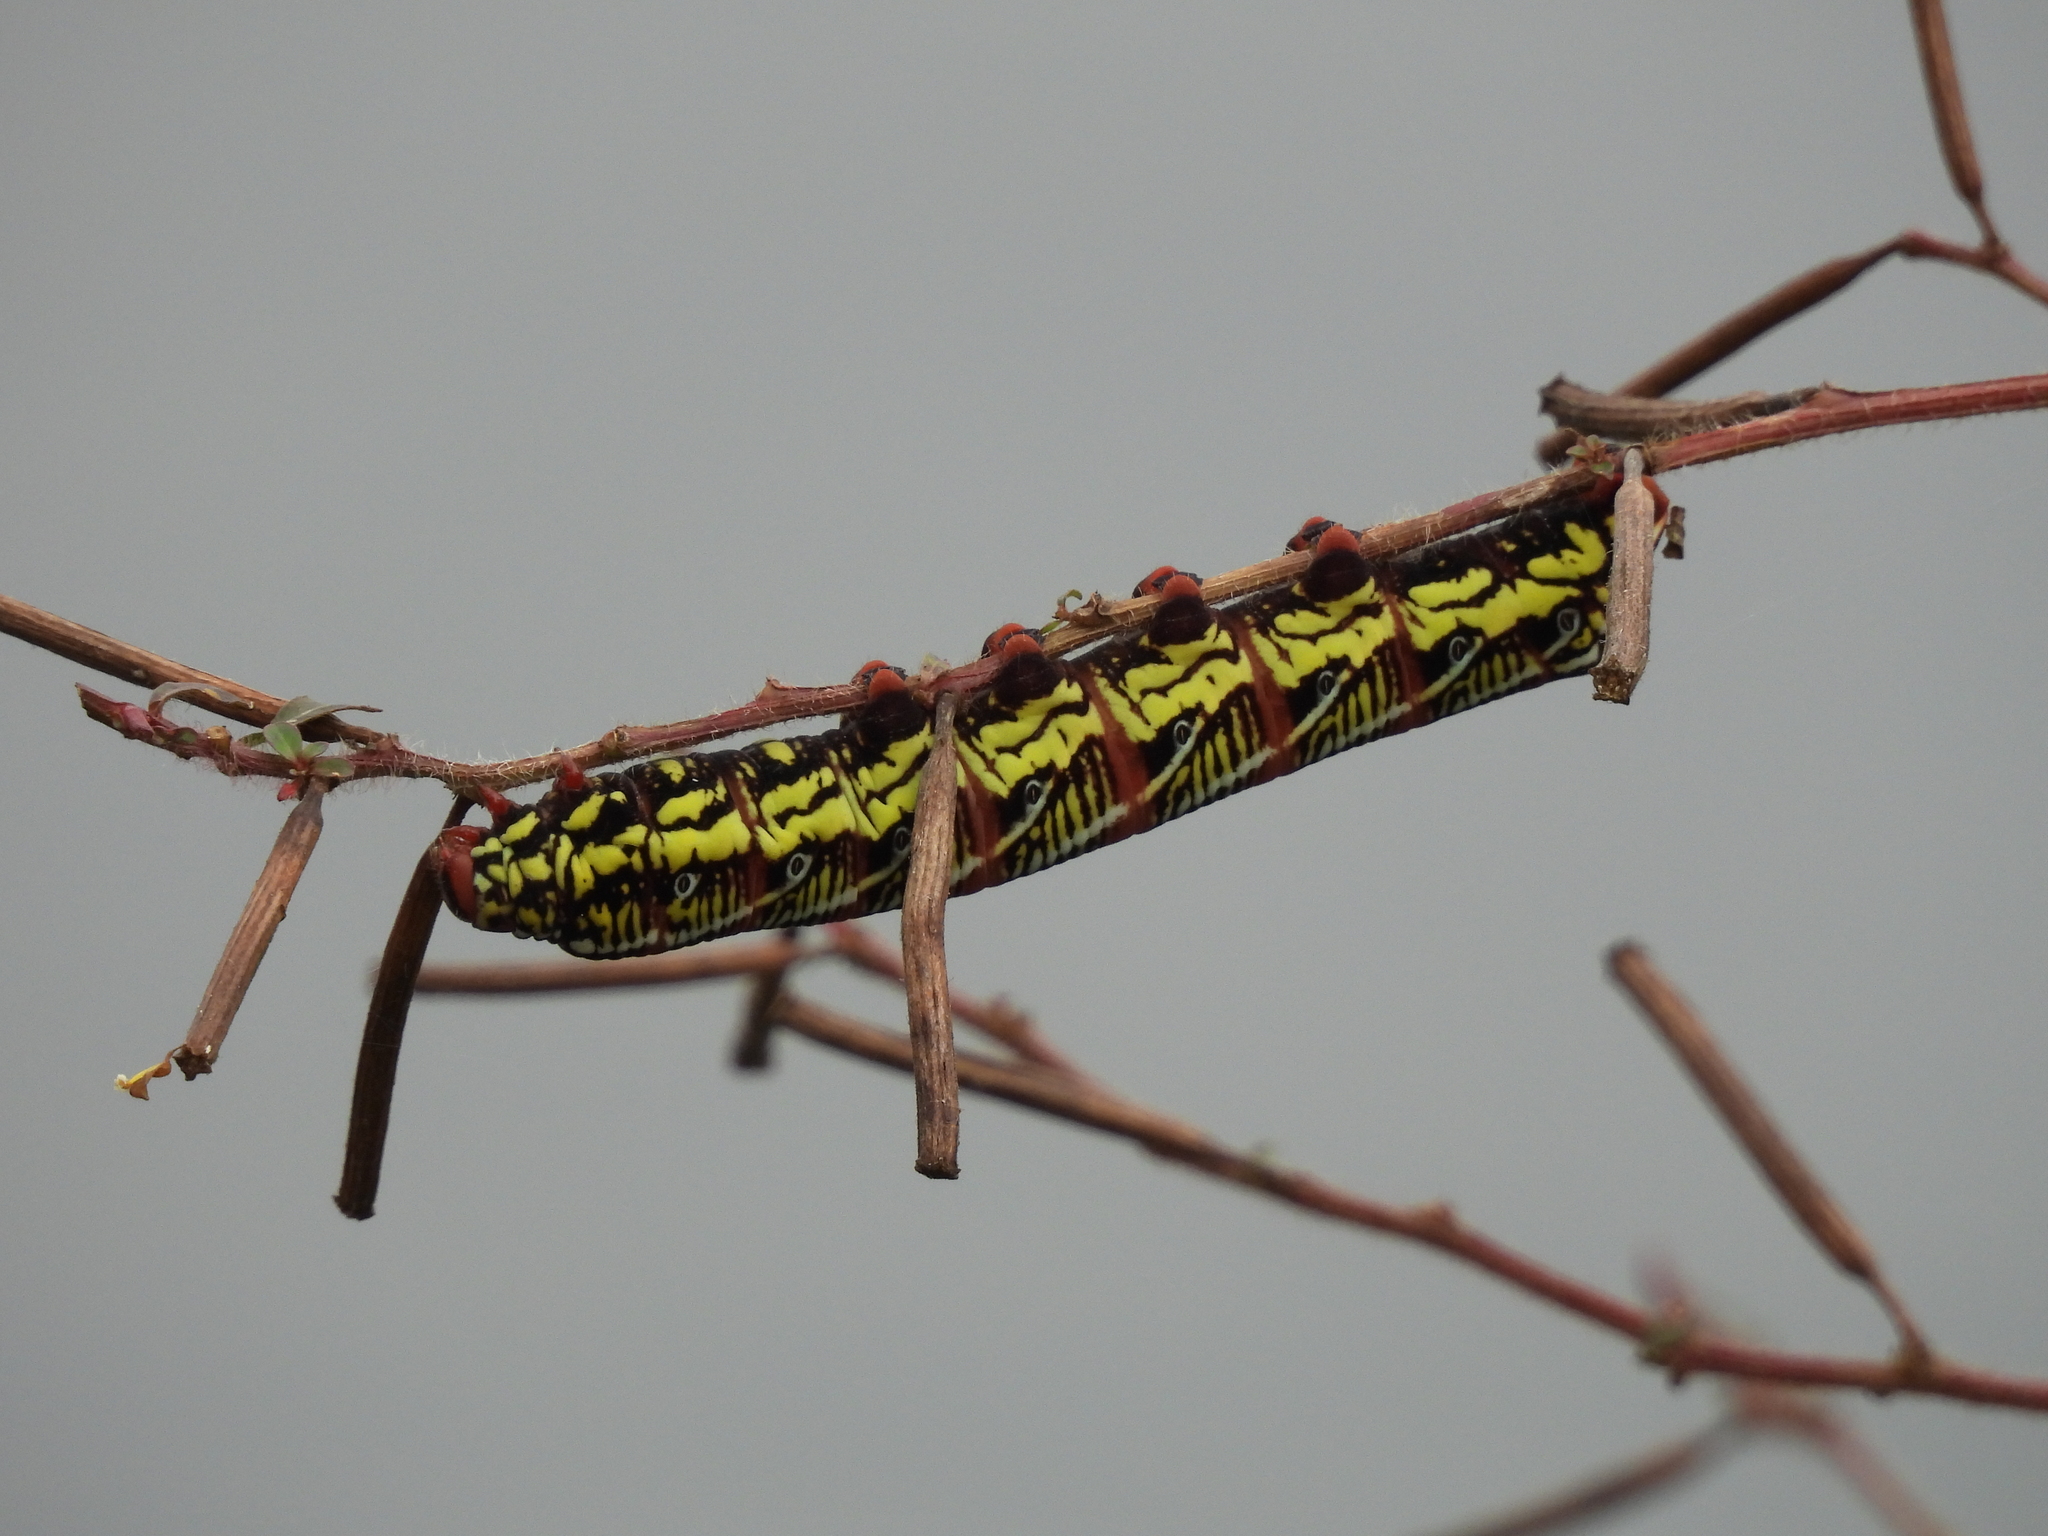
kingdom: Animalia
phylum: Arthropoda
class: Insecta
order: Lepidoptera
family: Sphingidae
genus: Eumorpha
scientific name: Eumorpha fasciatus
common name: Banded sphinx
